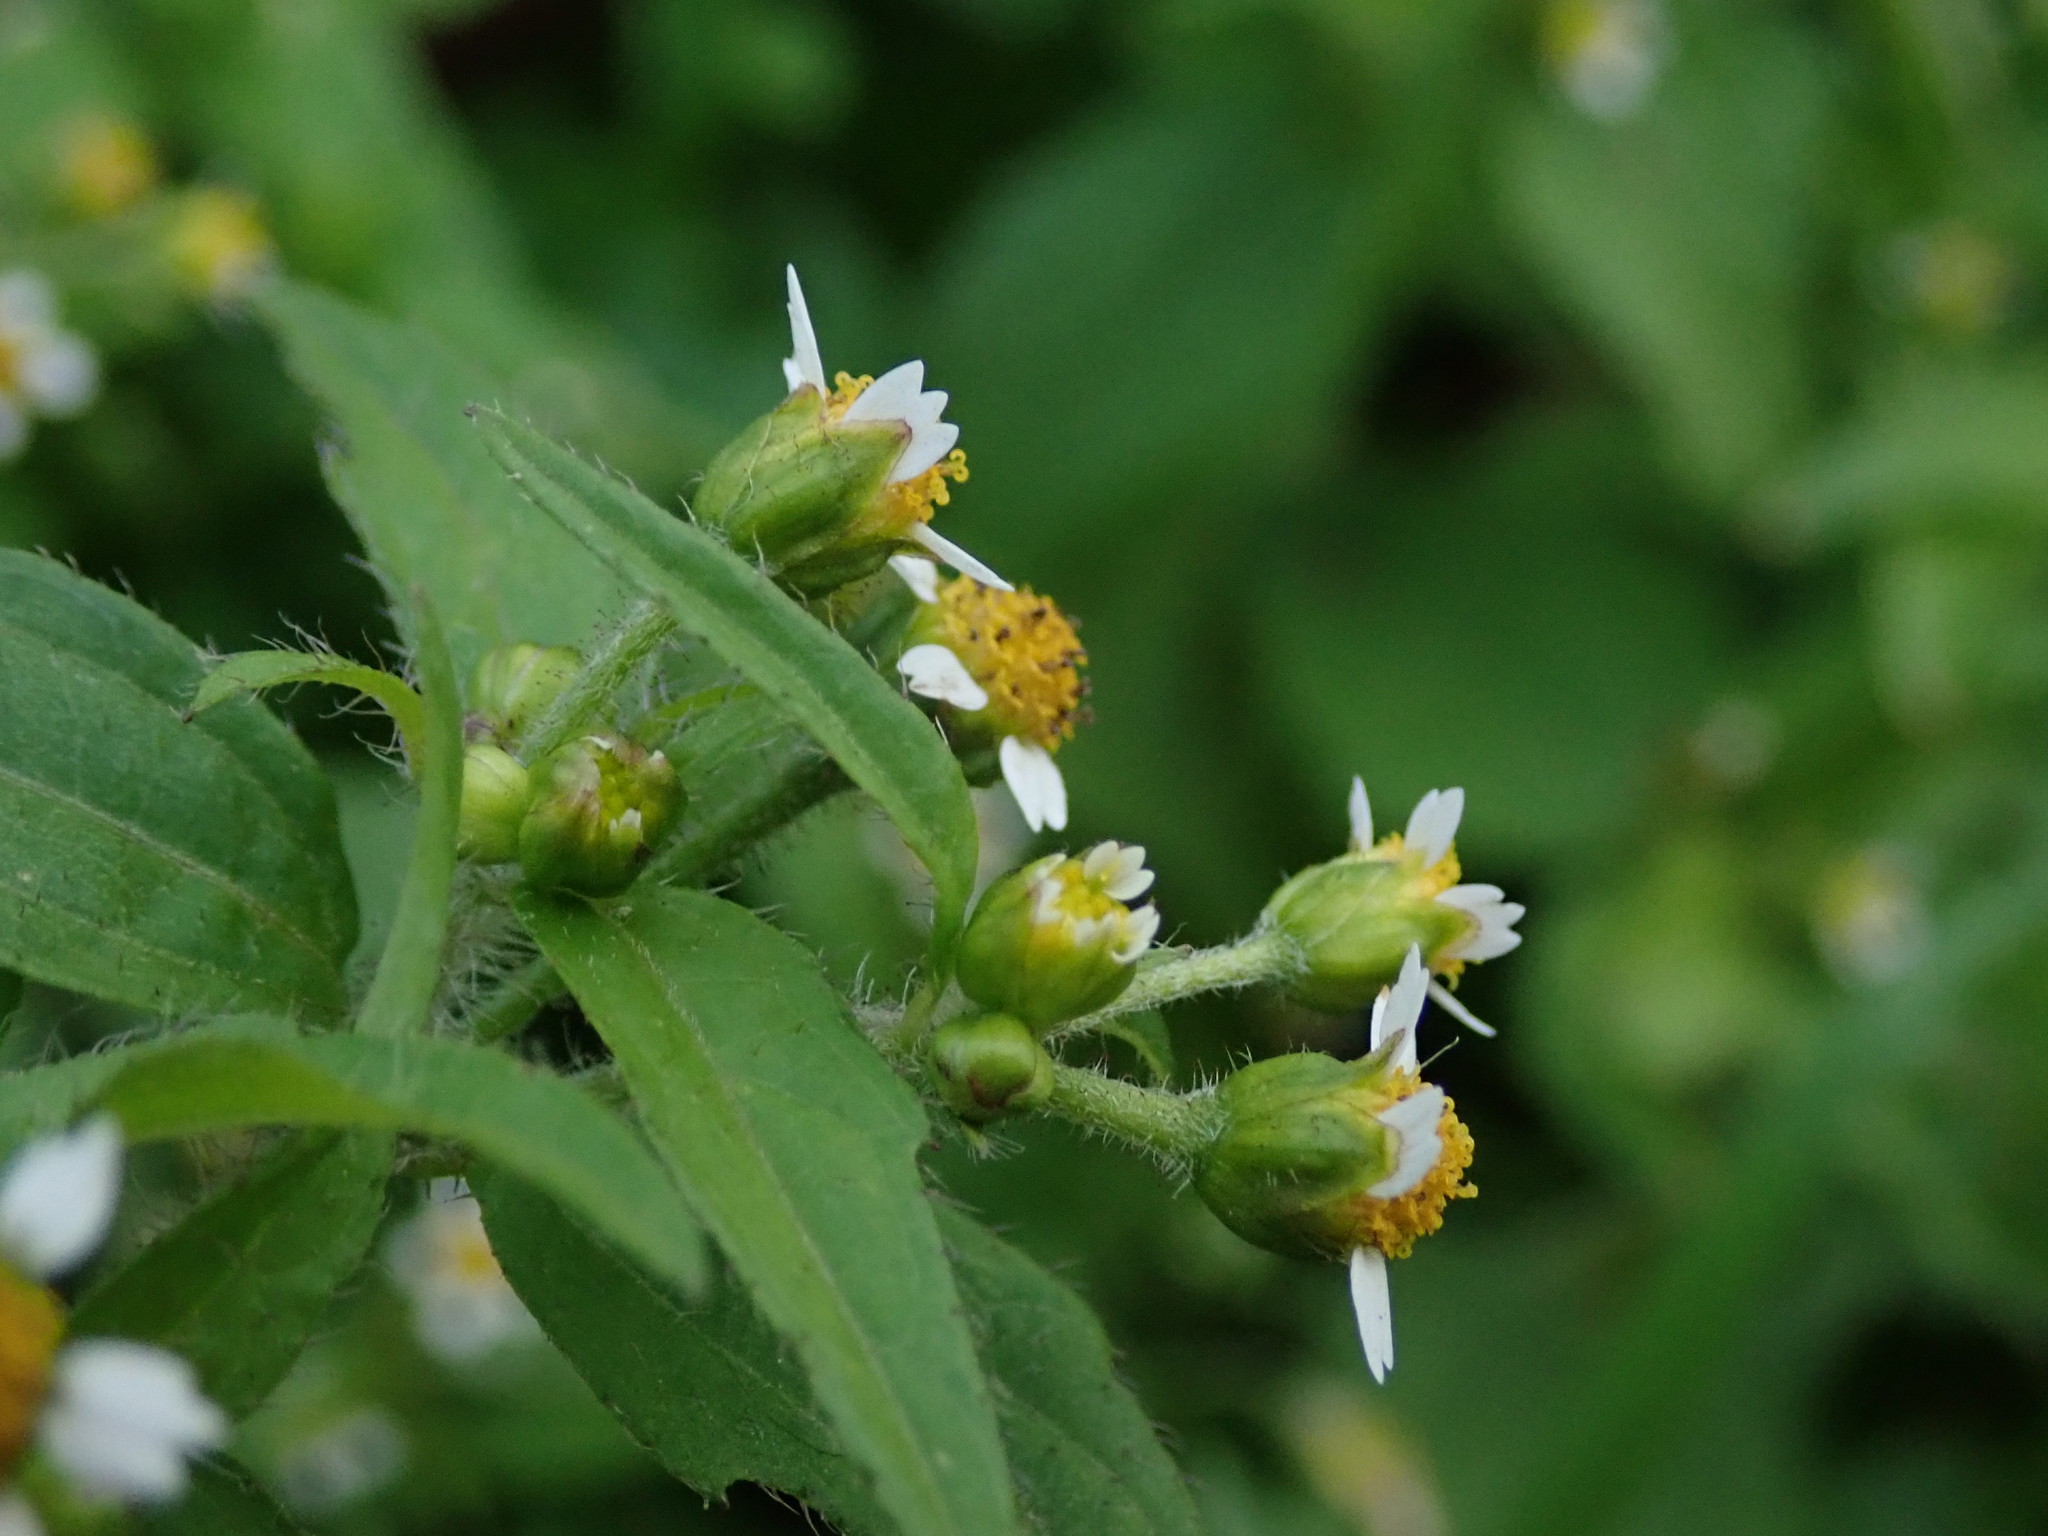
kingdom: Plantae
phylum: Tracheophyta
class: Magnoliopsida
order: Asterales
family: Asteraceae
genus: Galinsoga
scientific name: Galinsoga quadriradiata
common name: Shaggy soldier
